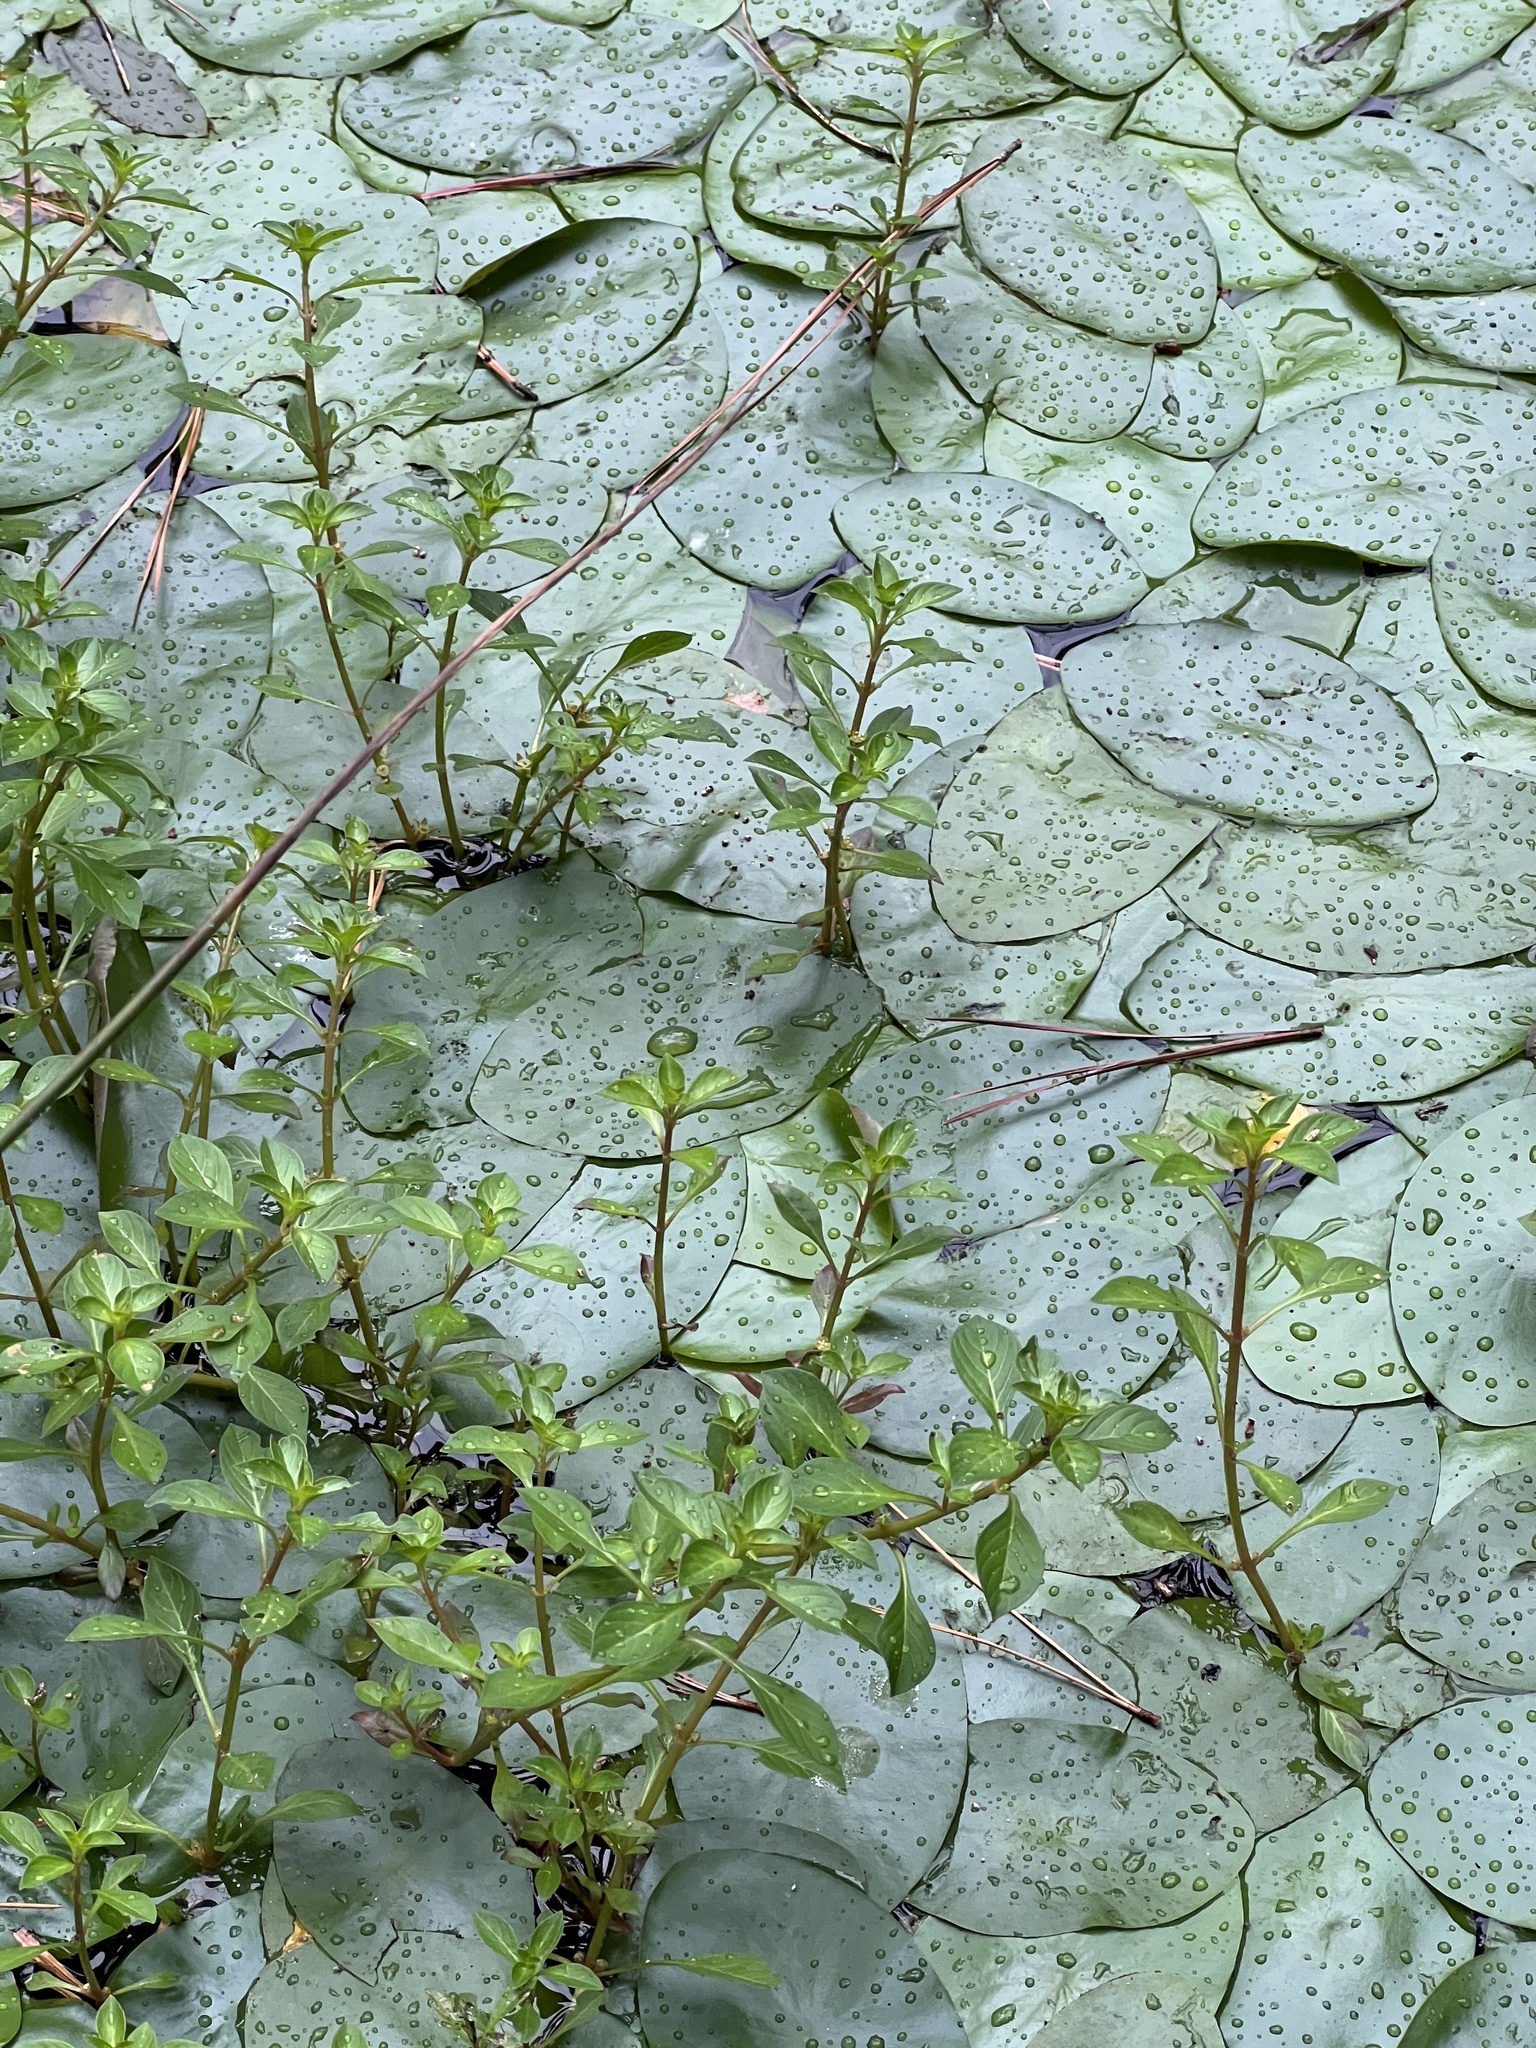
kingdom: Plantae
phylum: Tracheophyta
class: Magnoliopsida
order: Nymphaeales
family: Cabombaceae
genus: Brasenia
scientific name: Brasenia schreberi
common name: Water-shield
